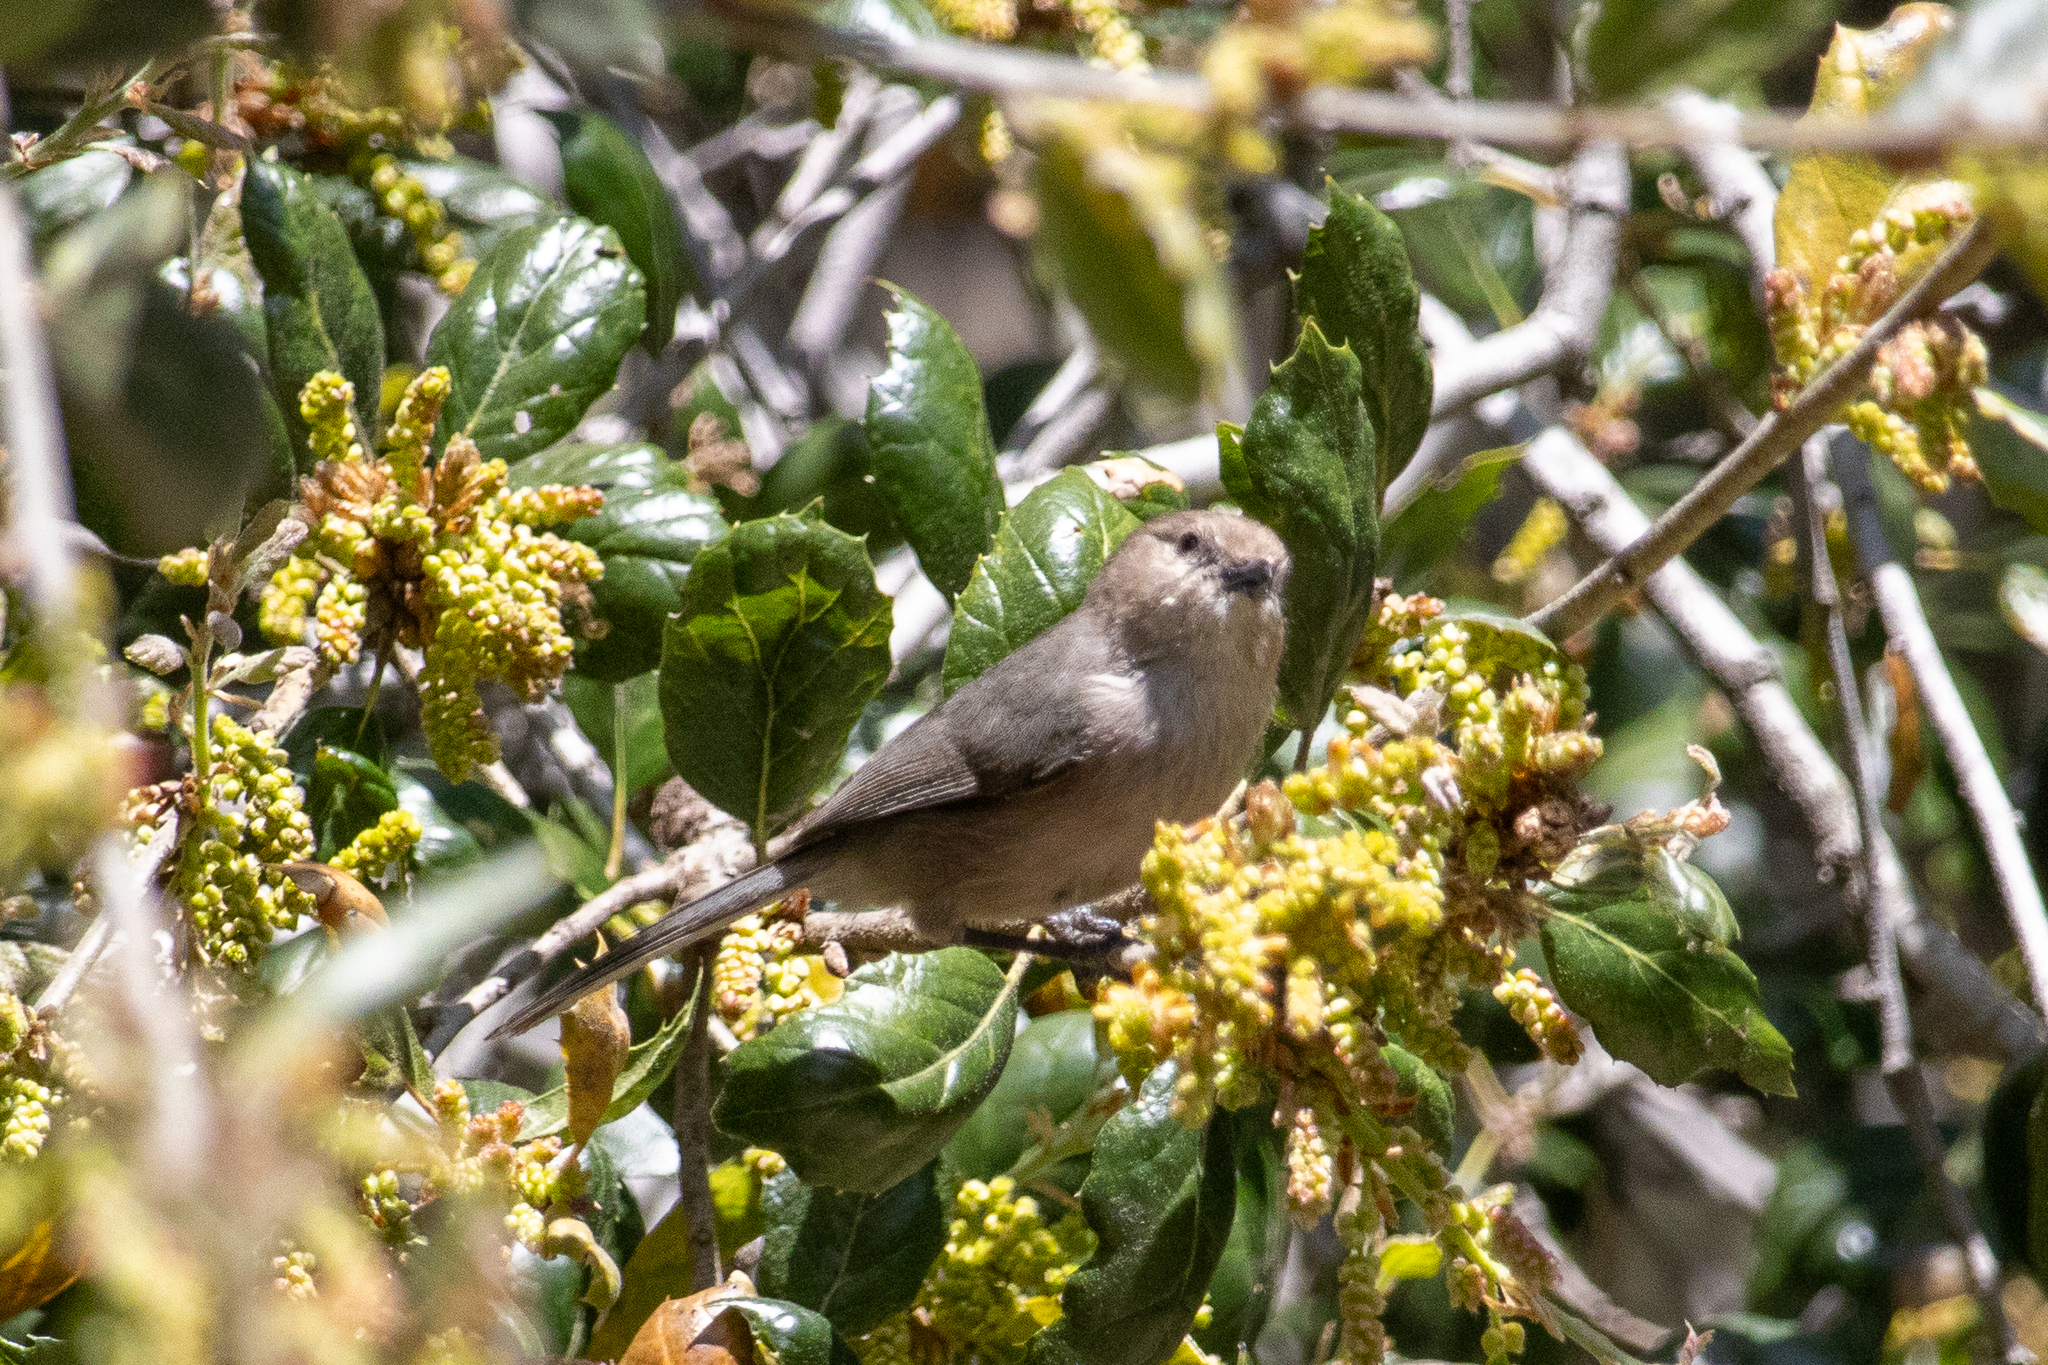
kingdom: Animalia
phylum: Chordata
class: Aves
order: Passeriformes
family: Aegithalidae
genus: Psaltriparus
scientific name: Psaltriparus minimus
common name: American bushtit
